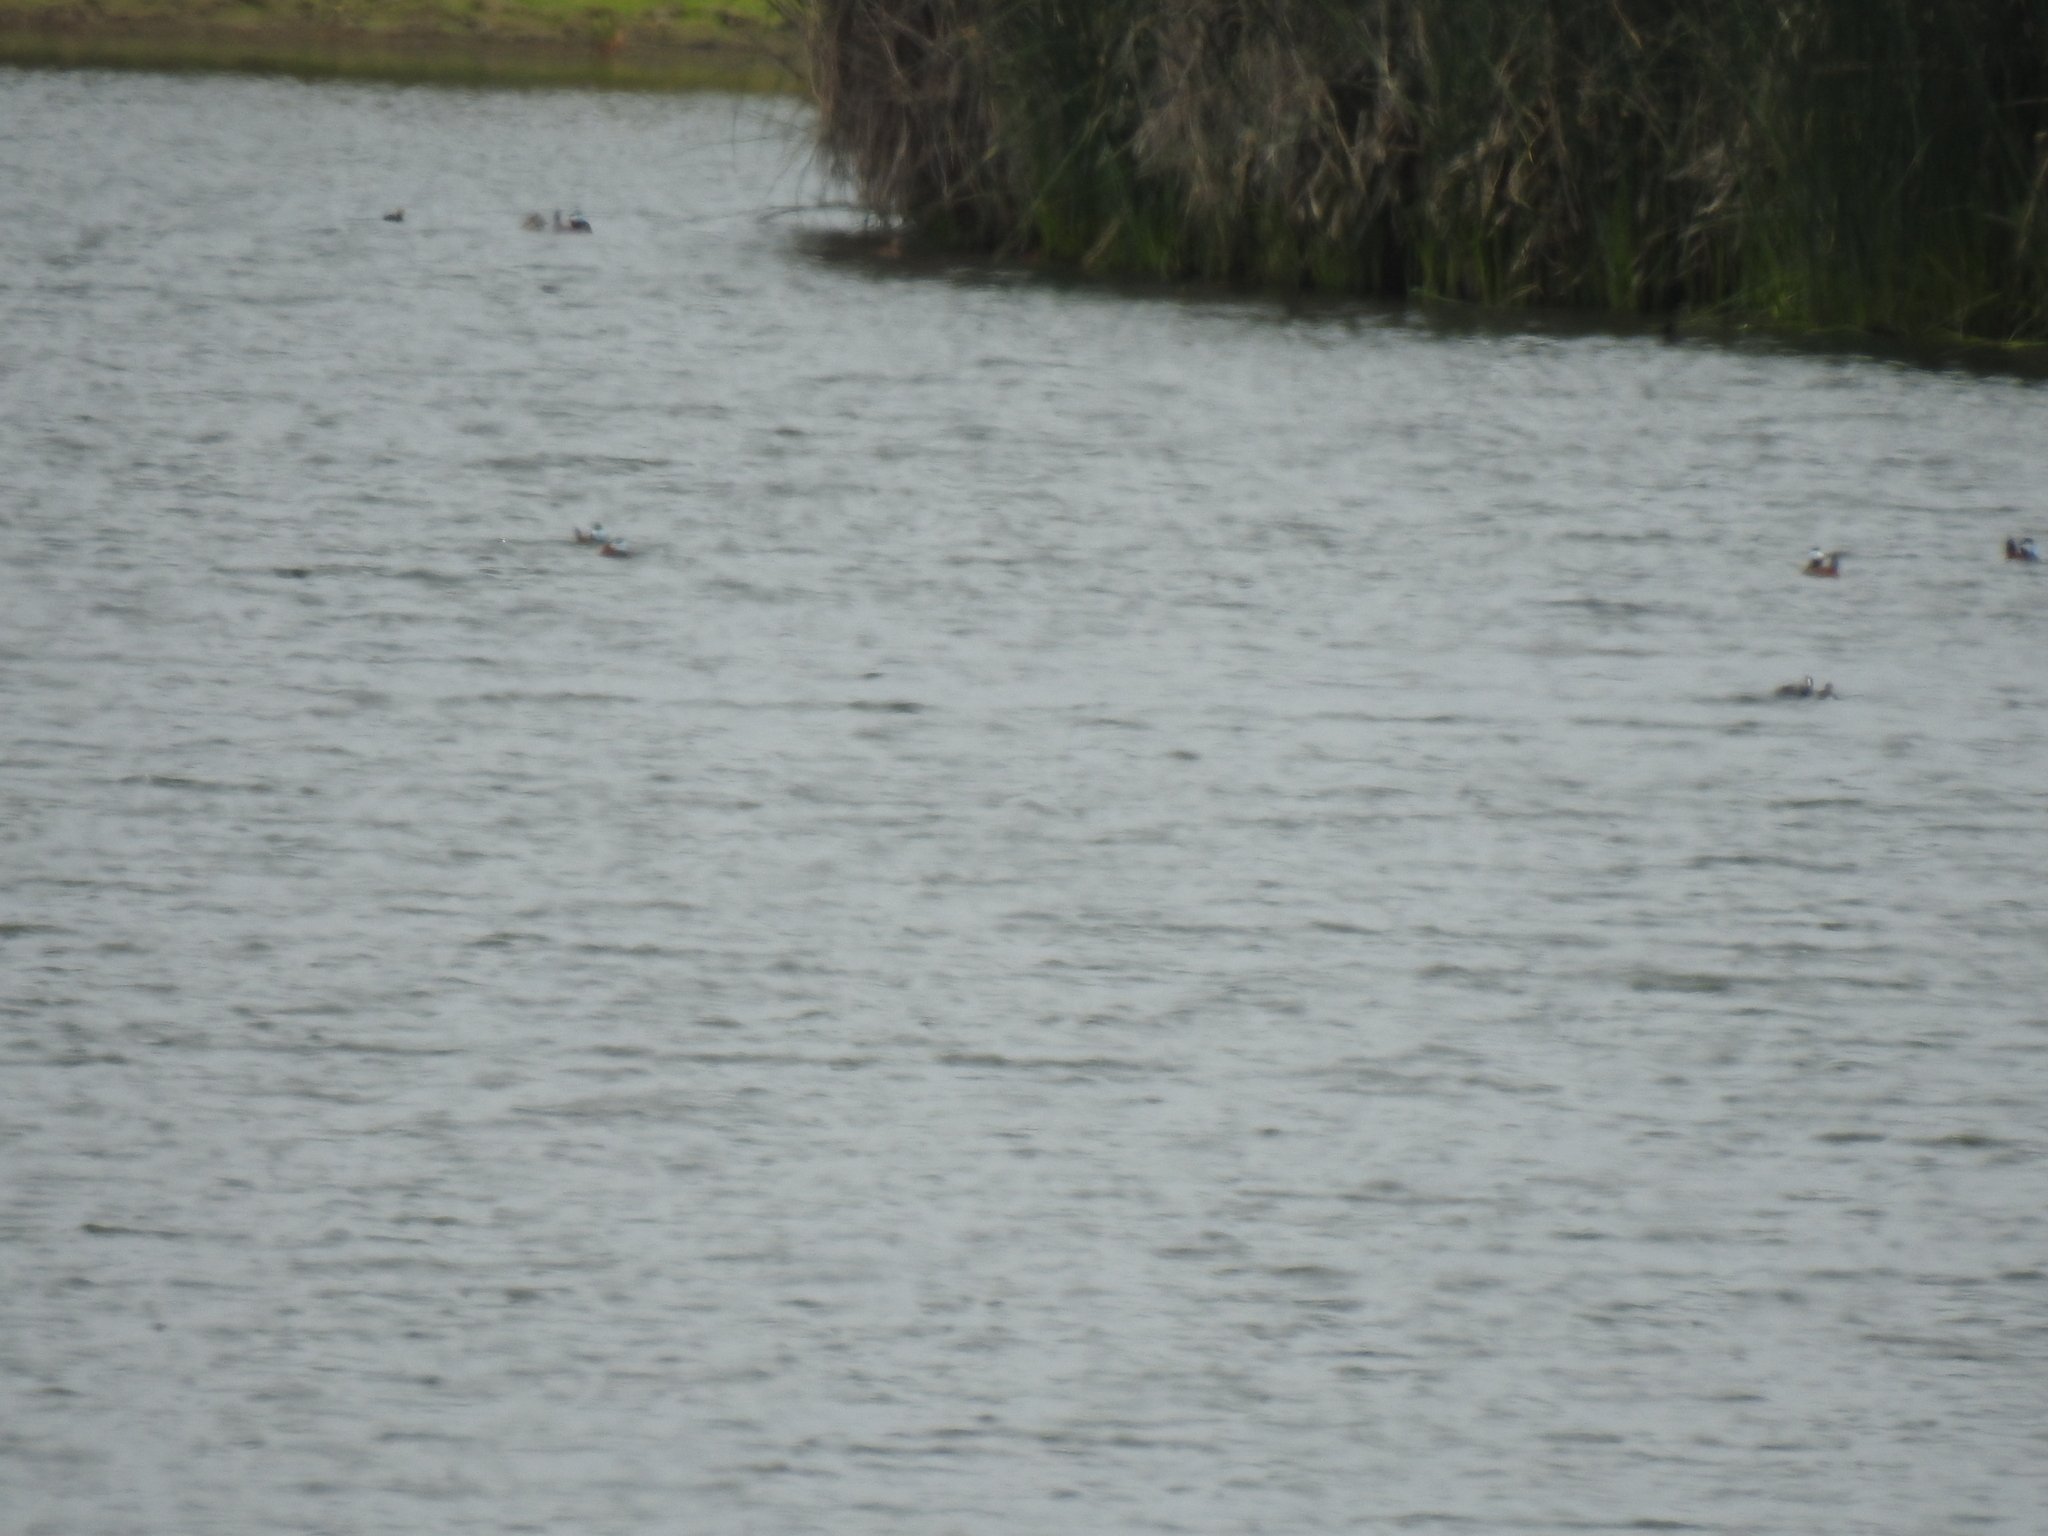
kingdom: Animalia
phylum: Chordata
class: Aves
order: Anseriformes
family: Anatidae
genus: Oxyura
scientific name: Oxyura jamaicensis
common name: Ruddy duck
